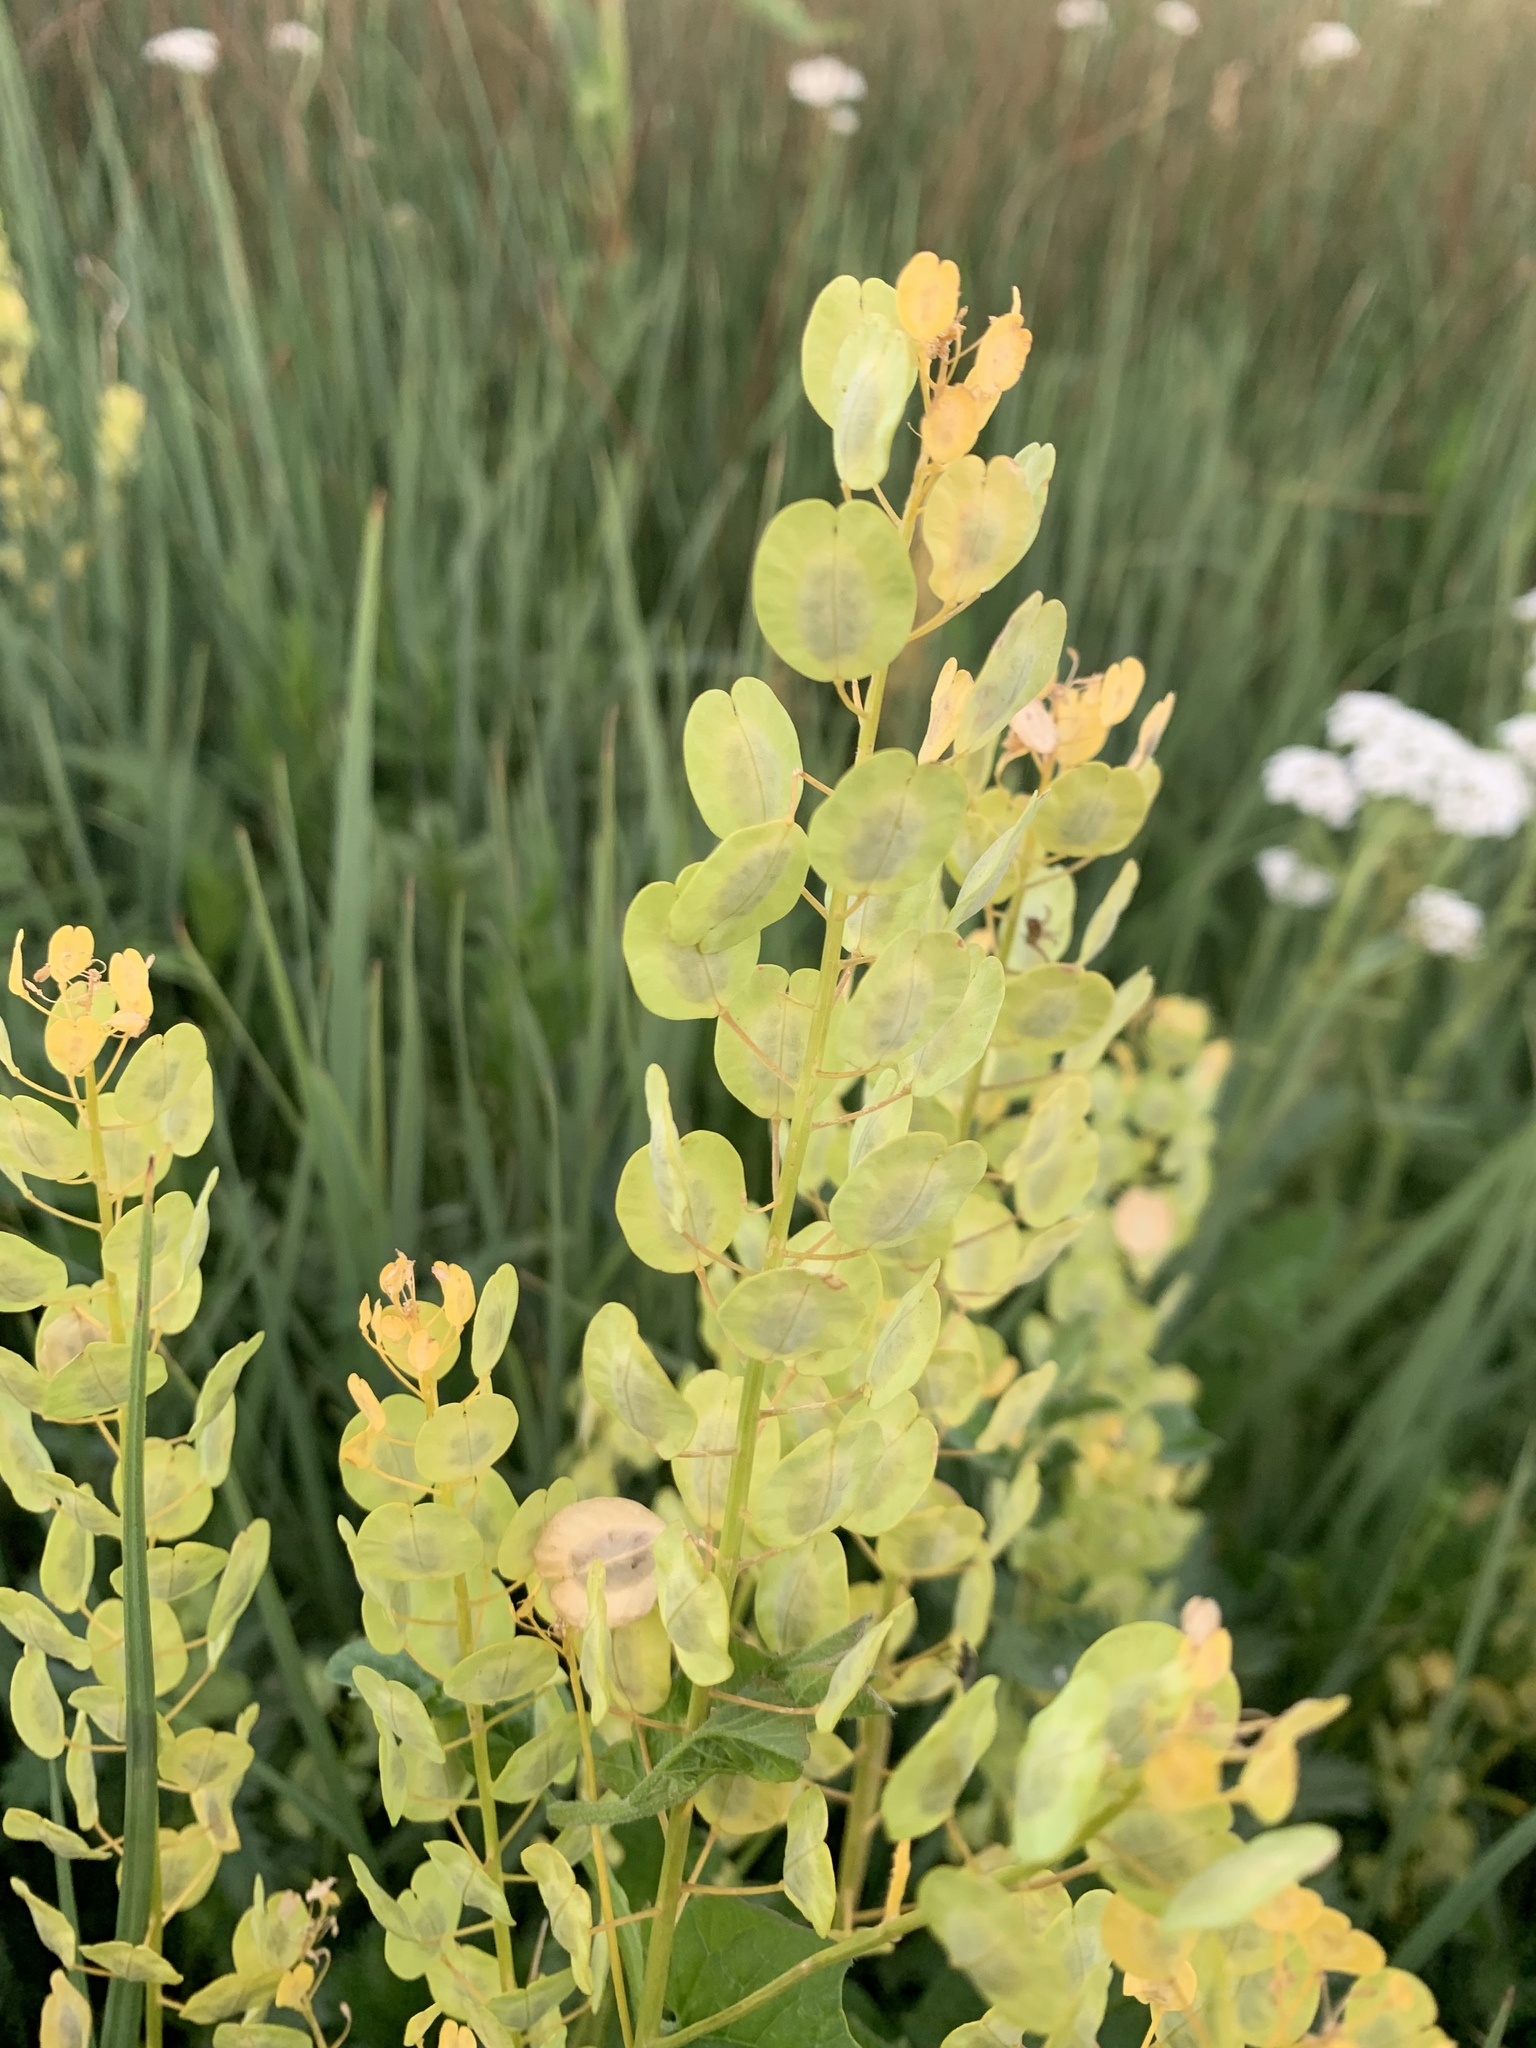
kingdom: Plantae
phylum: Tracheophyta
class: Magnoliopsida
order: Brassicales
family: Brassicaceae
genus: Thlaspi
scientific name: Thlaspi arvense
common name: Field pennycress
